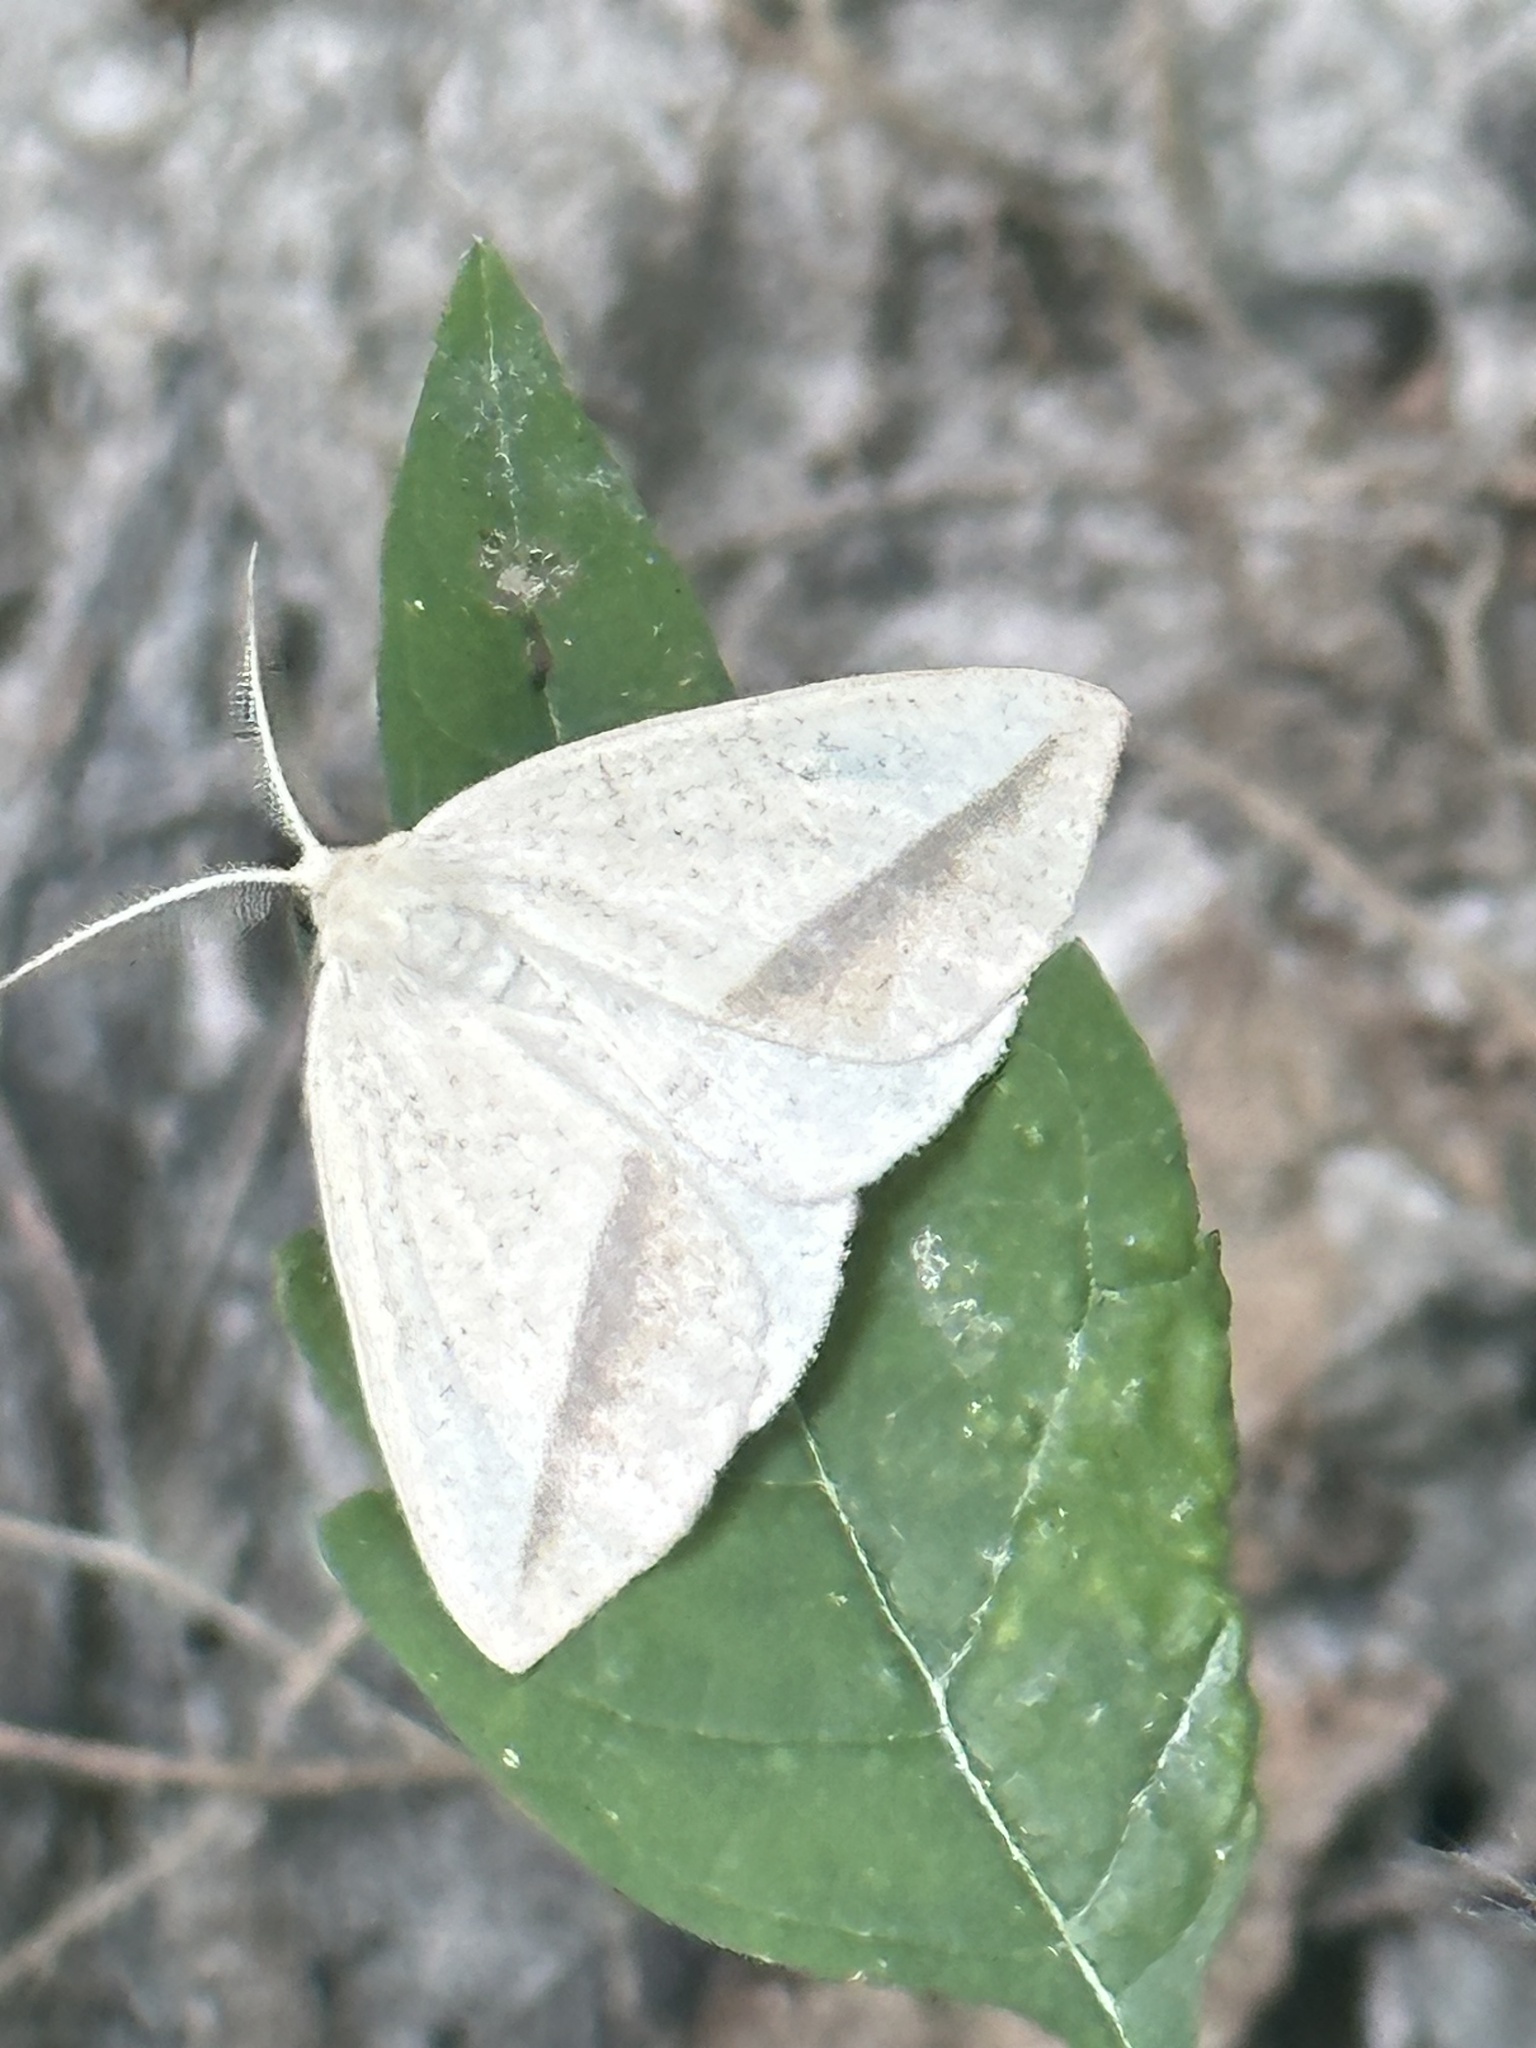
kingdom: Animalia
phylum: Arthropoda
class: Insecta
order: Lepidoptera
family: Geometridae
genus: Lychnosea
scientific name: Lychnosea intermicata
